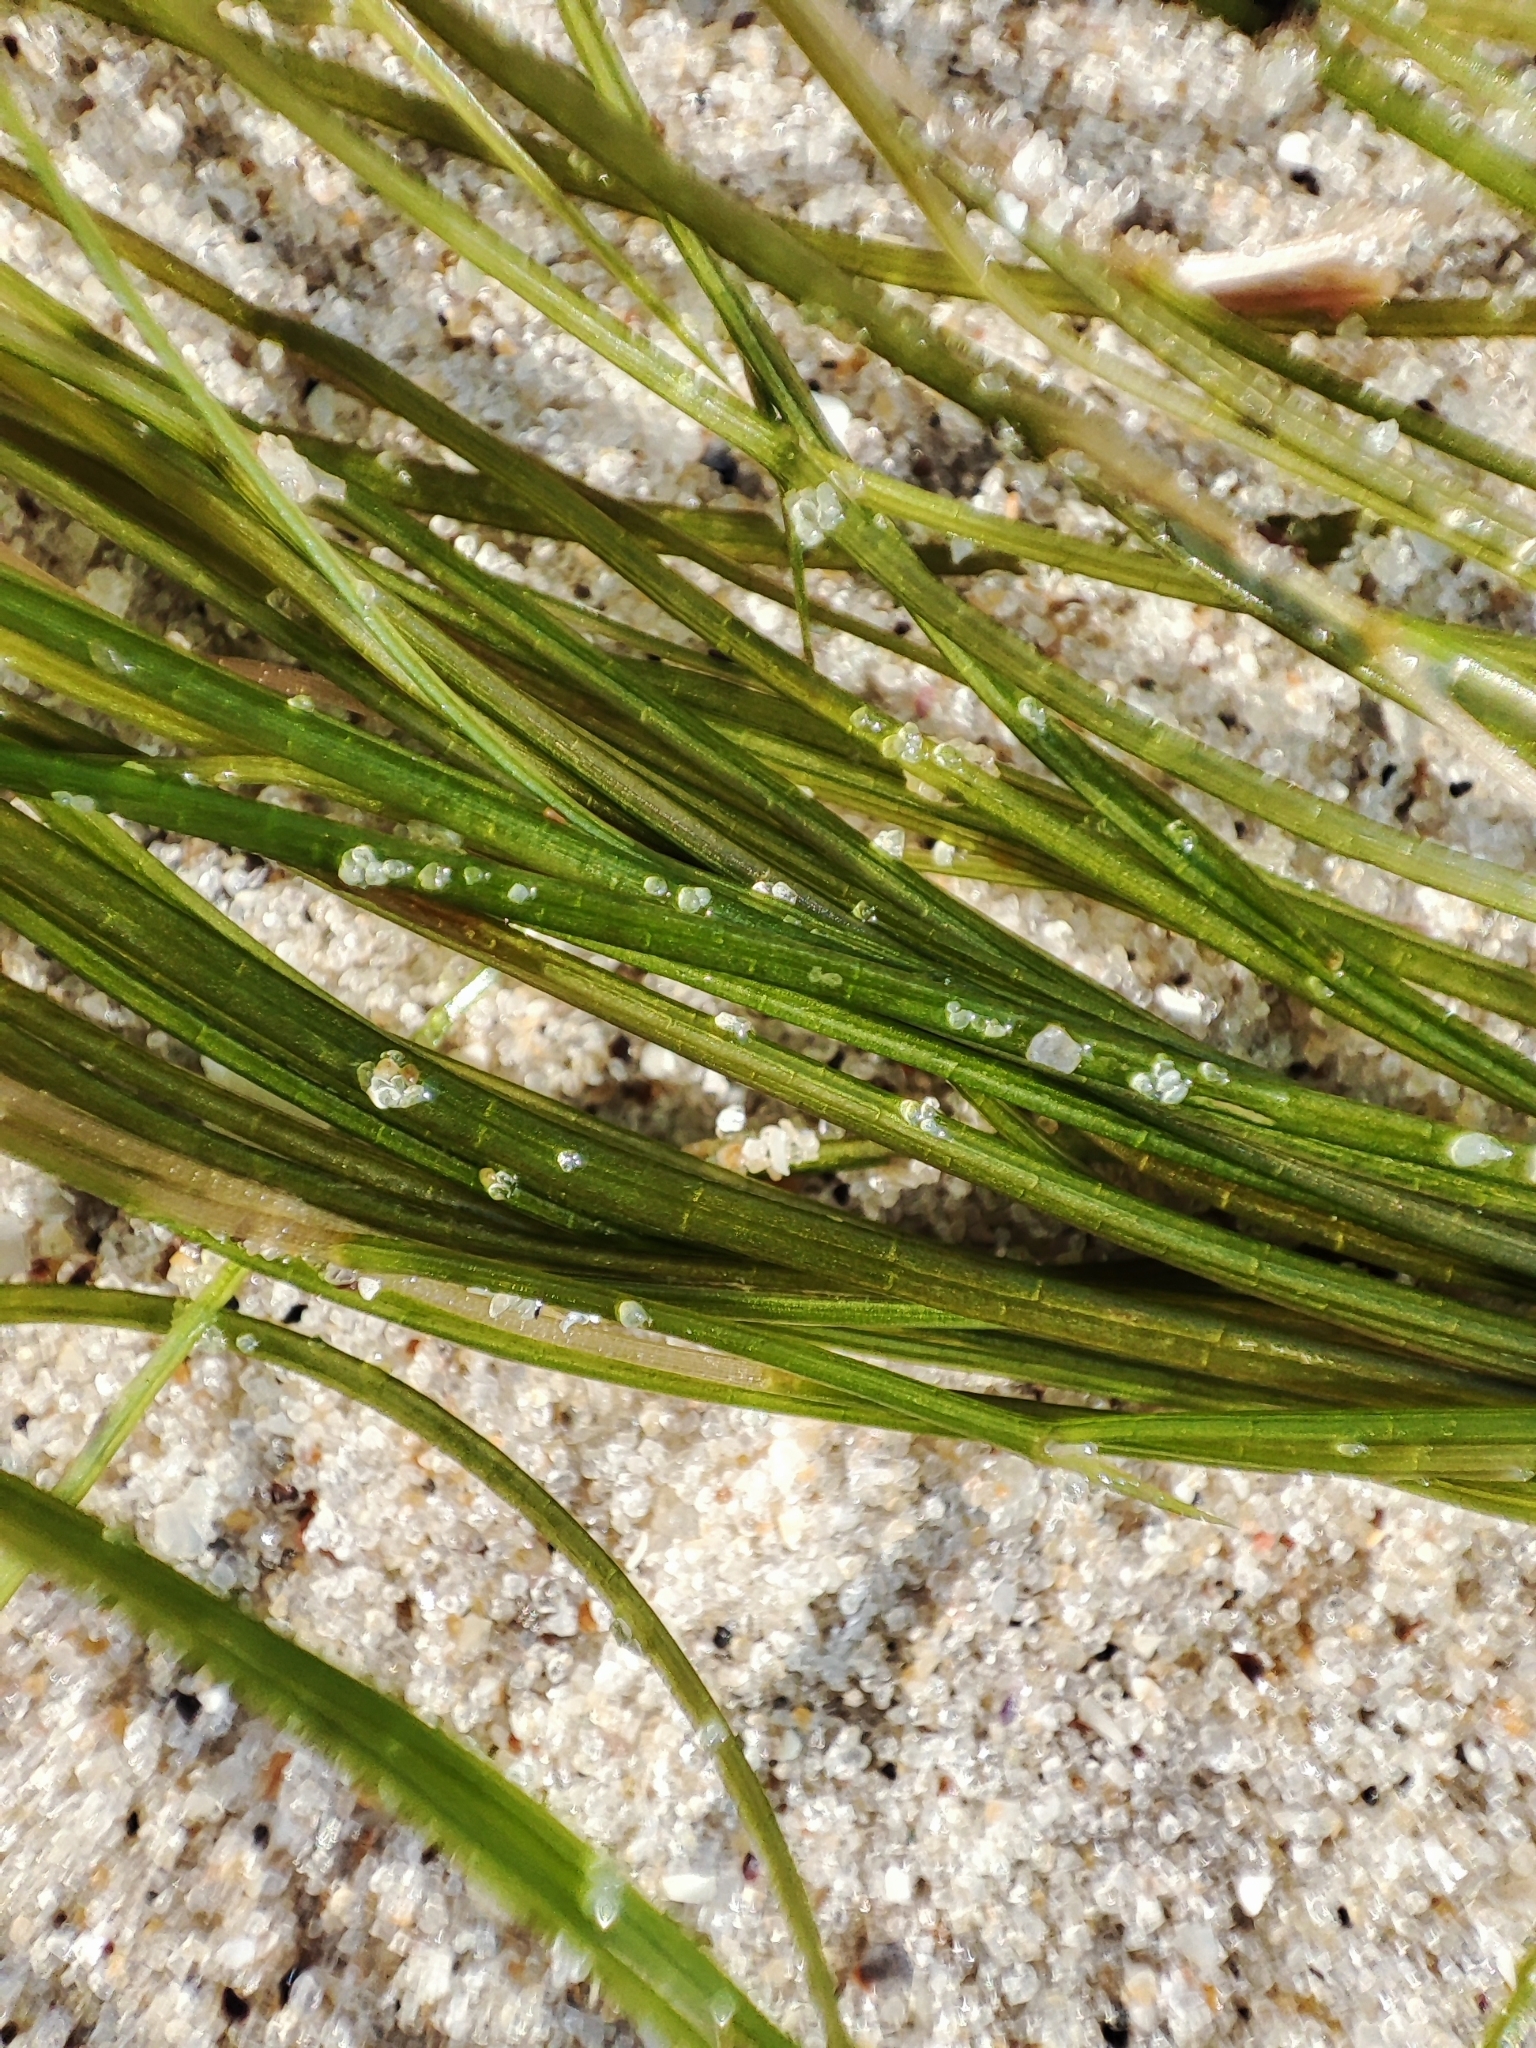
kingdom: Plantae
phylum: Tracheophyta
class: Liliopsida
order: Alismatales
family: Potamogetonaceae
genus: Stuckenia
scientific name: Stuckenia pectinata
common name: Sago pondweed
